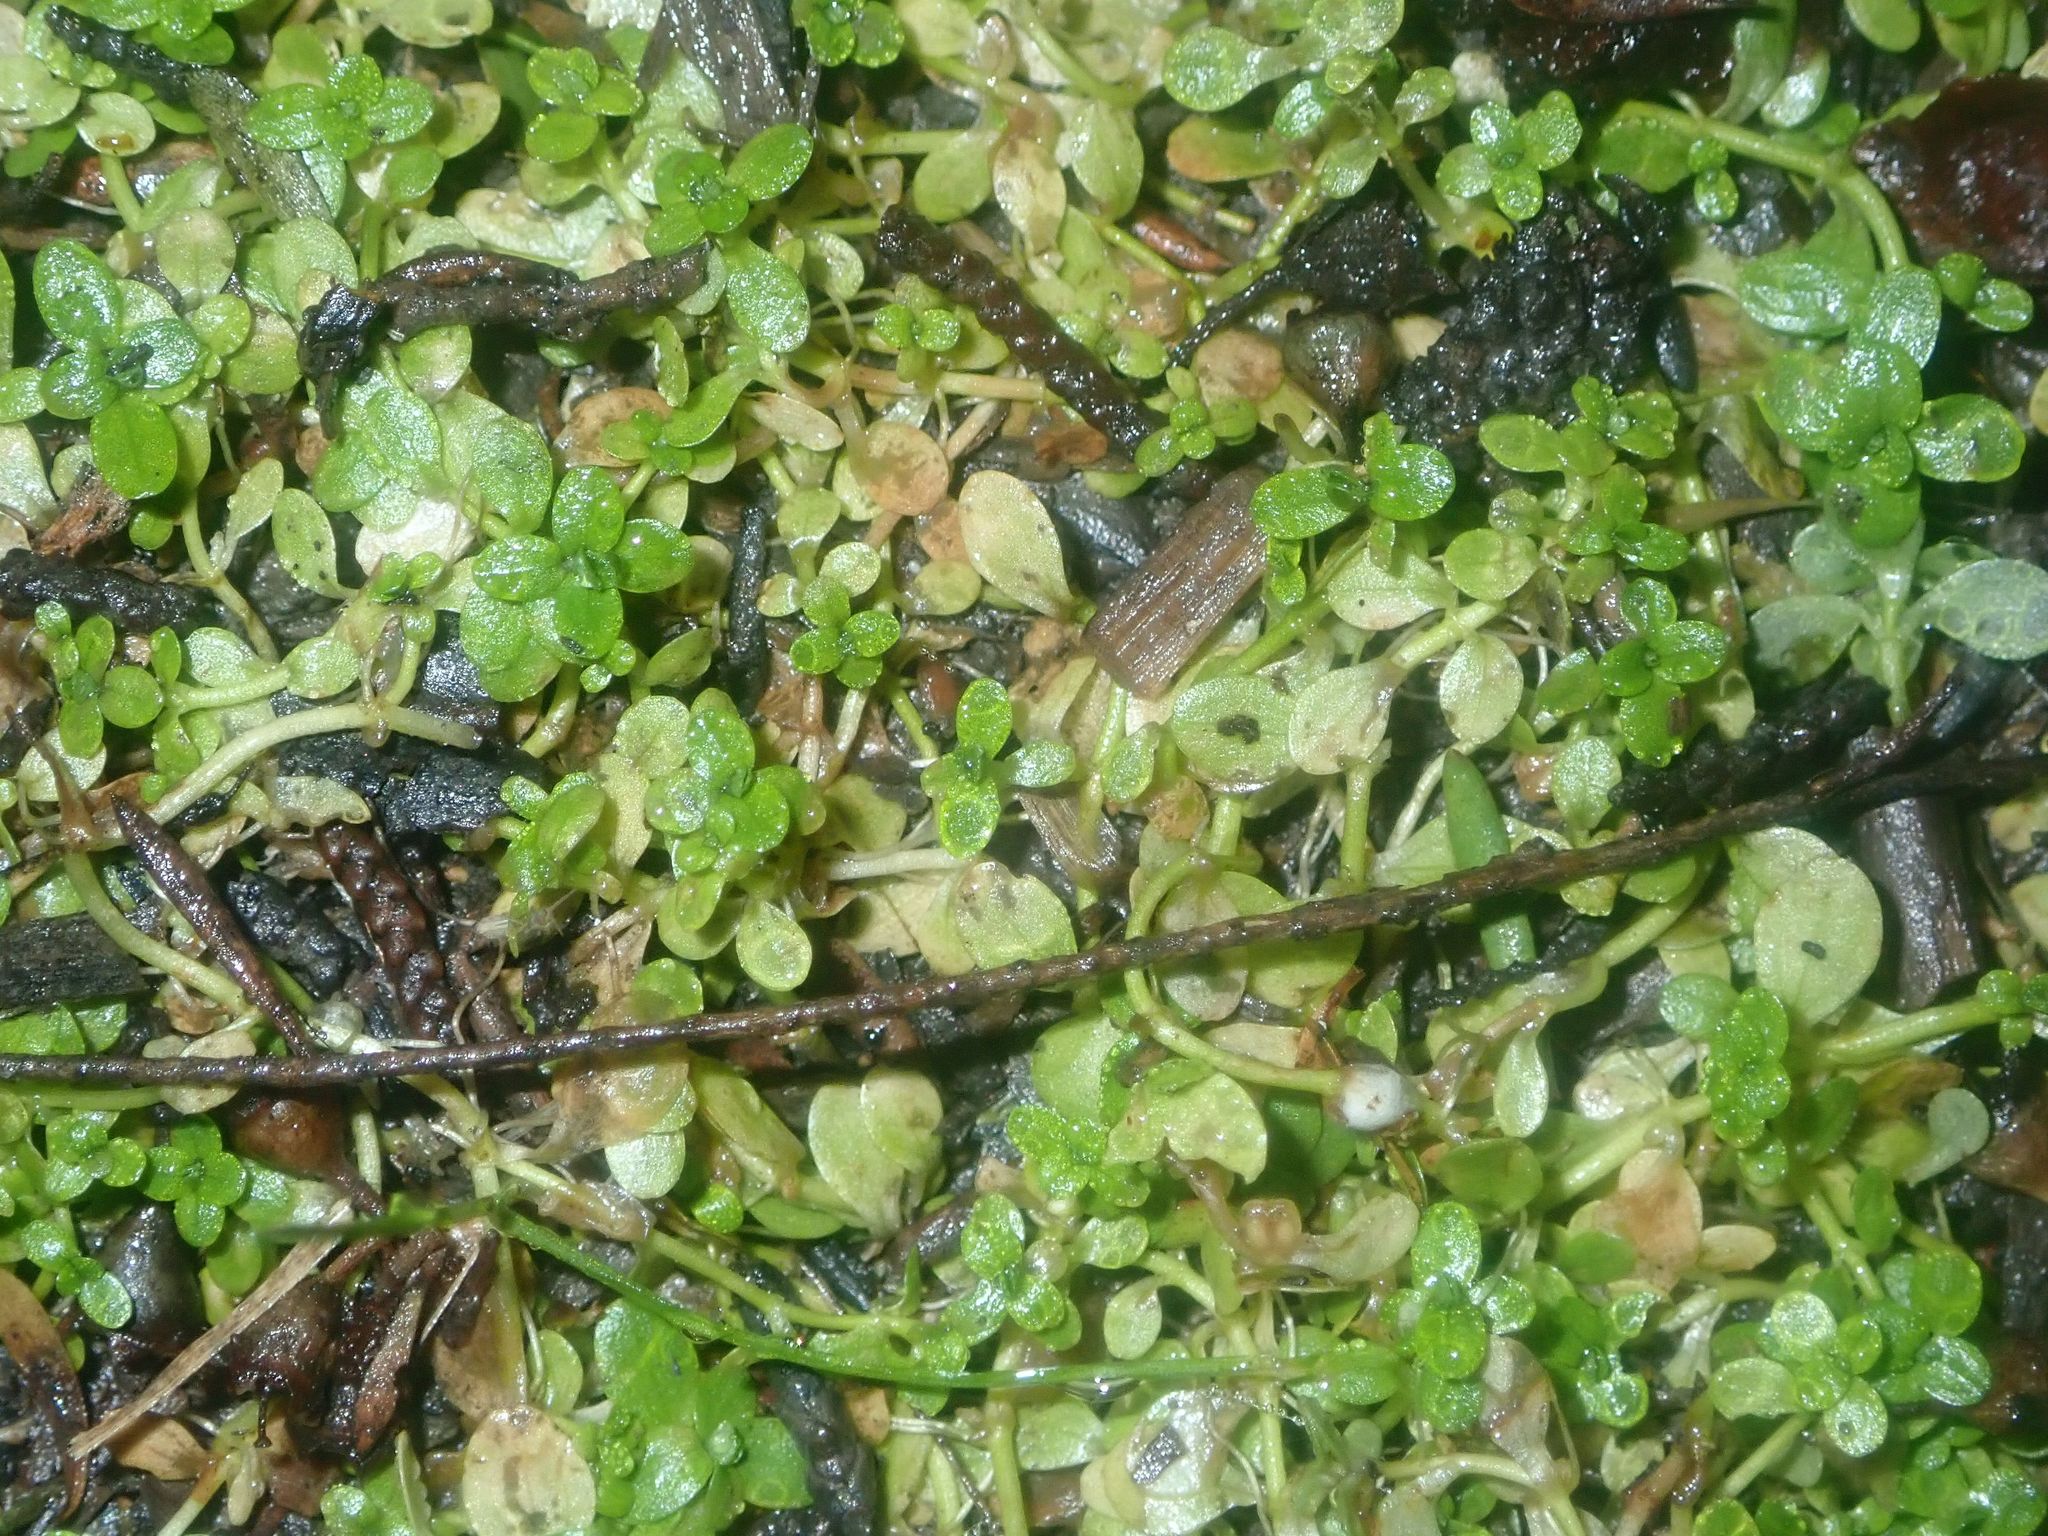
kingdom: Plantae
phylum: Tracheophyta
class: Magnoliopsida
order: Lamiales
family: Plantaginaceae
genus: Callitriche
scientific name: Callitriche stagnalis
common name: Common water-starwort
